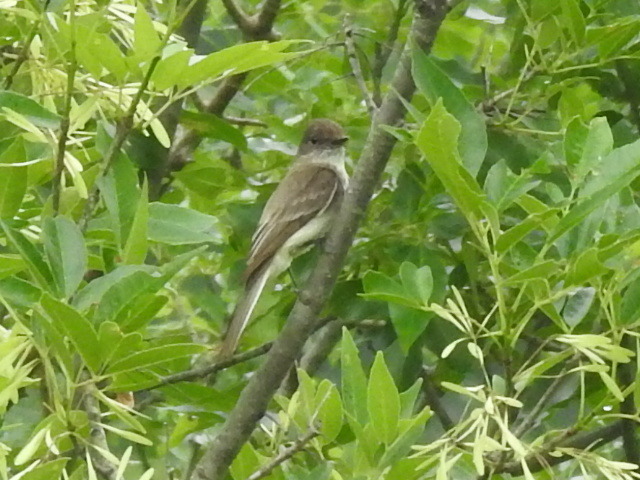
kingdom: Animalia
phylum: Chordata
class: Aves
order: Passeriformes
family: Tyrannidae
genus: Sayornis
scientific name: Sayornis phoebe
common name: Eastern phoebe
